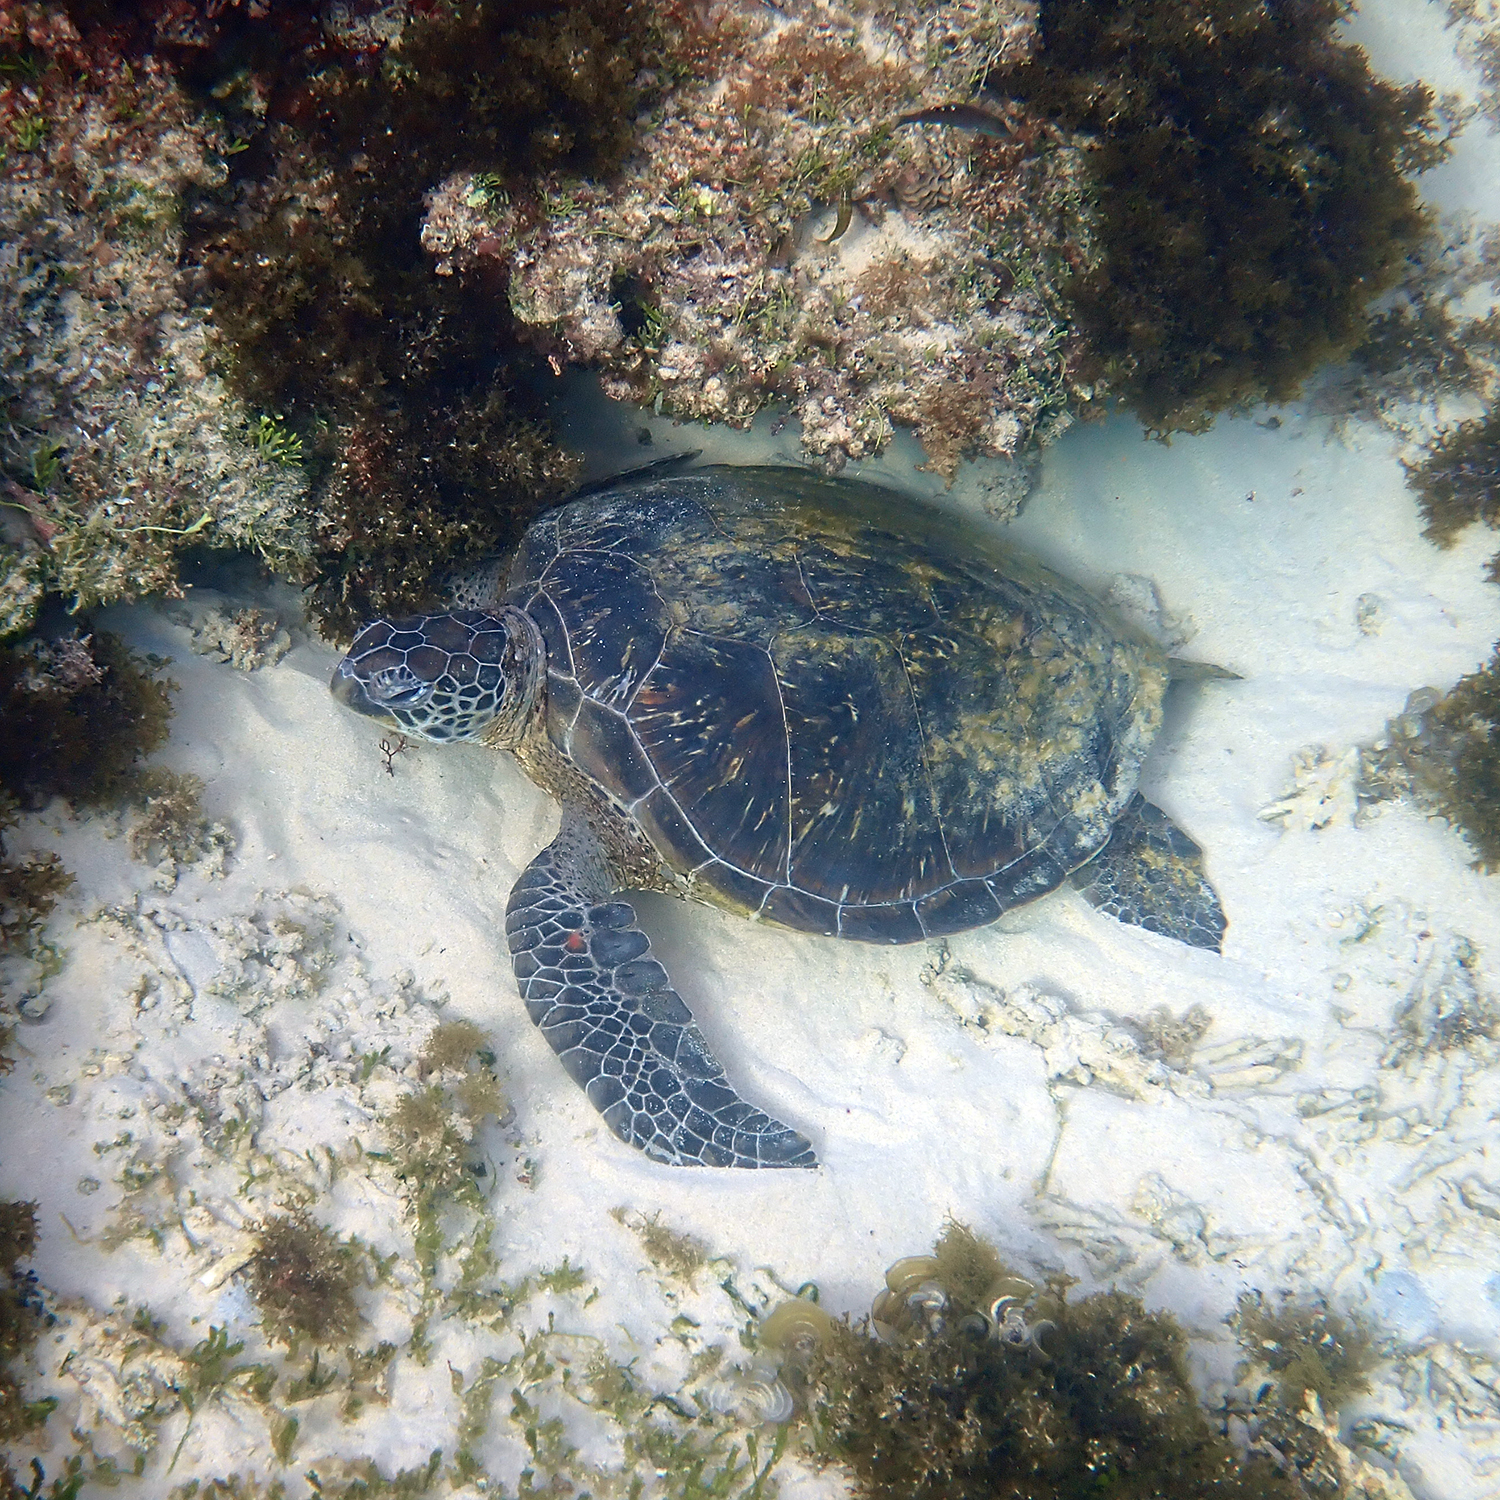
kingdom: Animalia
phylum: Chordata
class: Testudines
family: Cheloniidae
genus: Chelonia
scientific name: Chelonia mydas
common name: Green turtle
